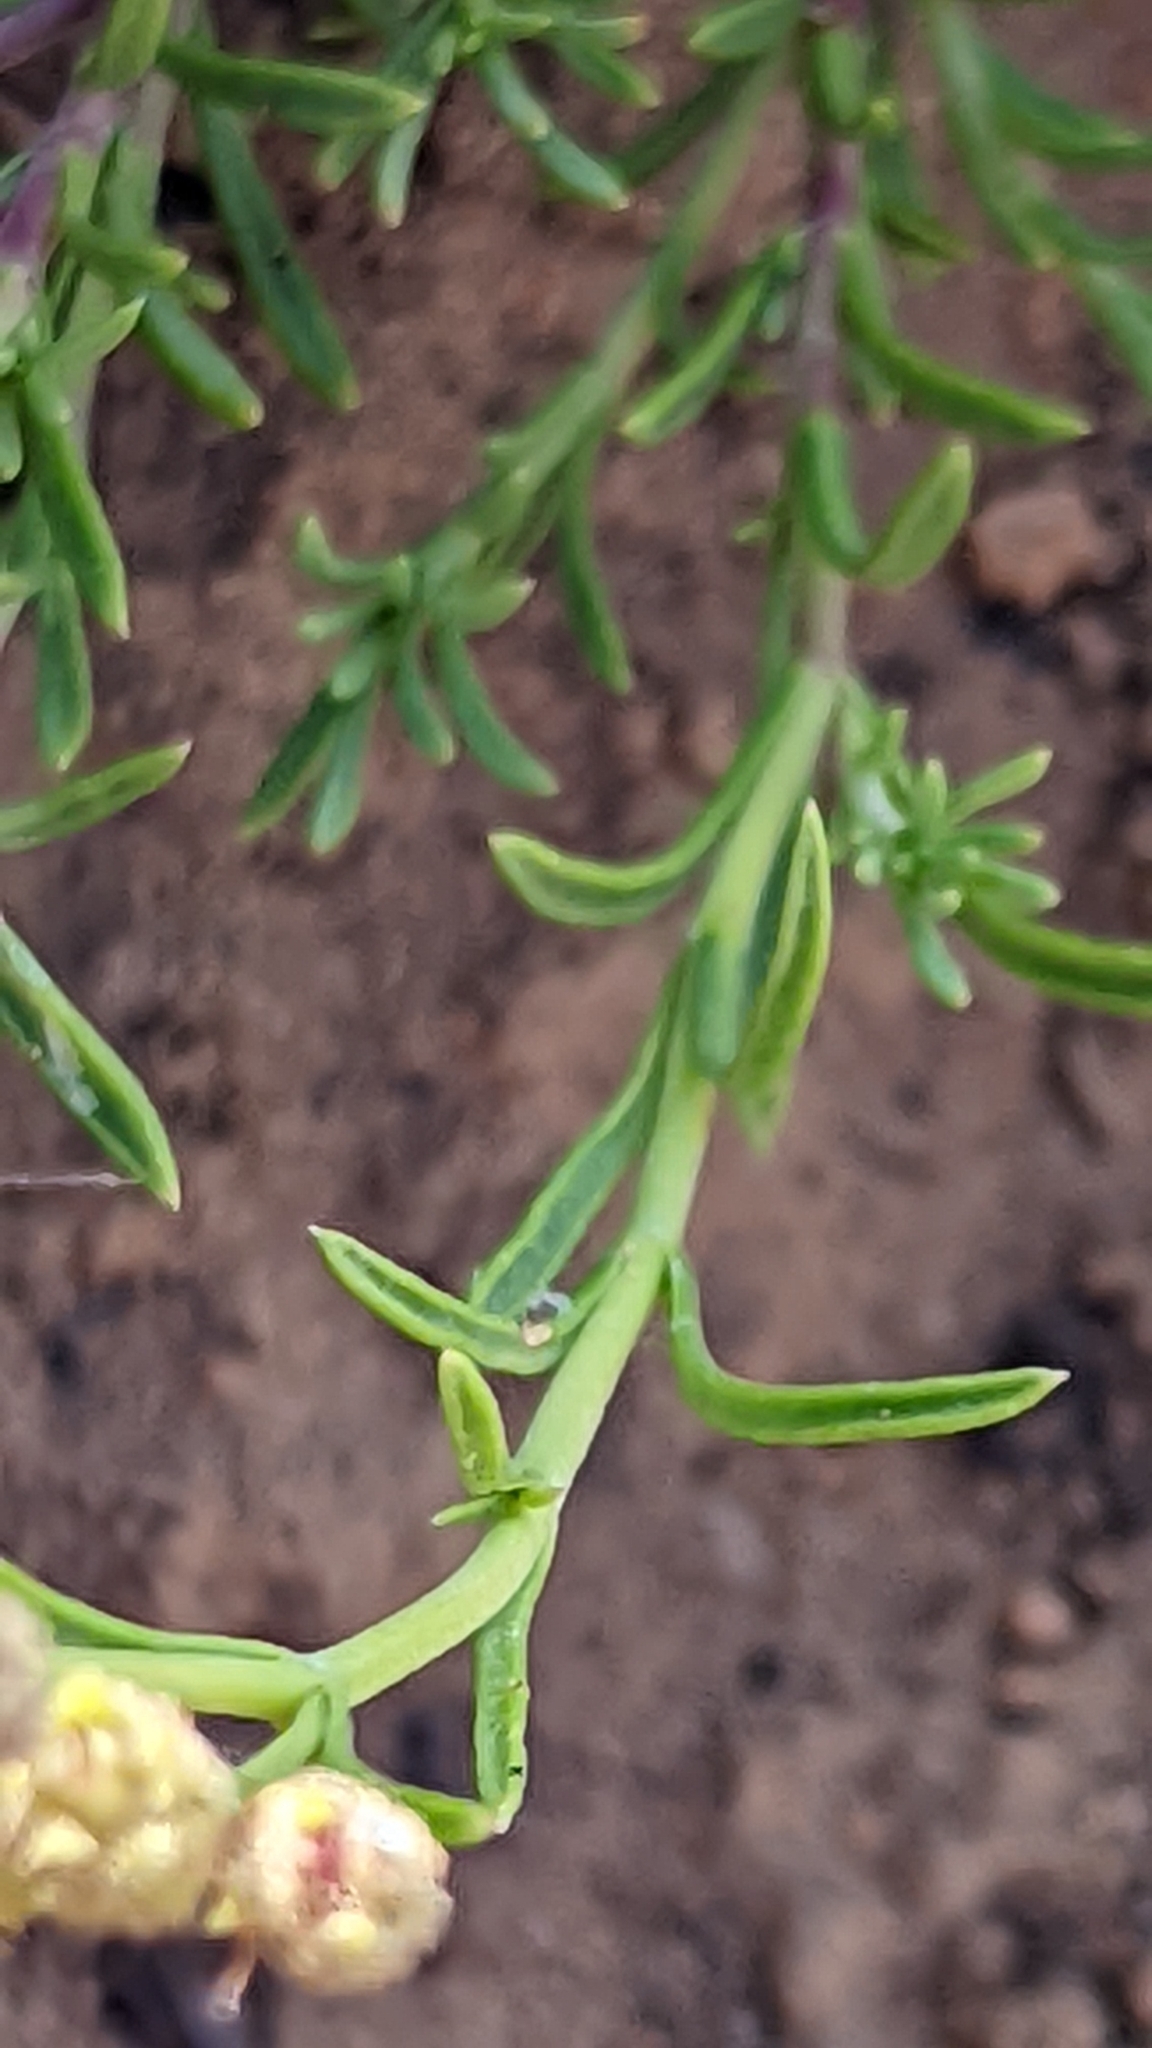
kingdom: Plantae
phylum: Tracheophyta
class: Magnoliopsida
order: Lamiales
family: Plantaginaceae
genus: Penstemon
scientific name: Penstemon linarioides
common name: Siler's penstemon
